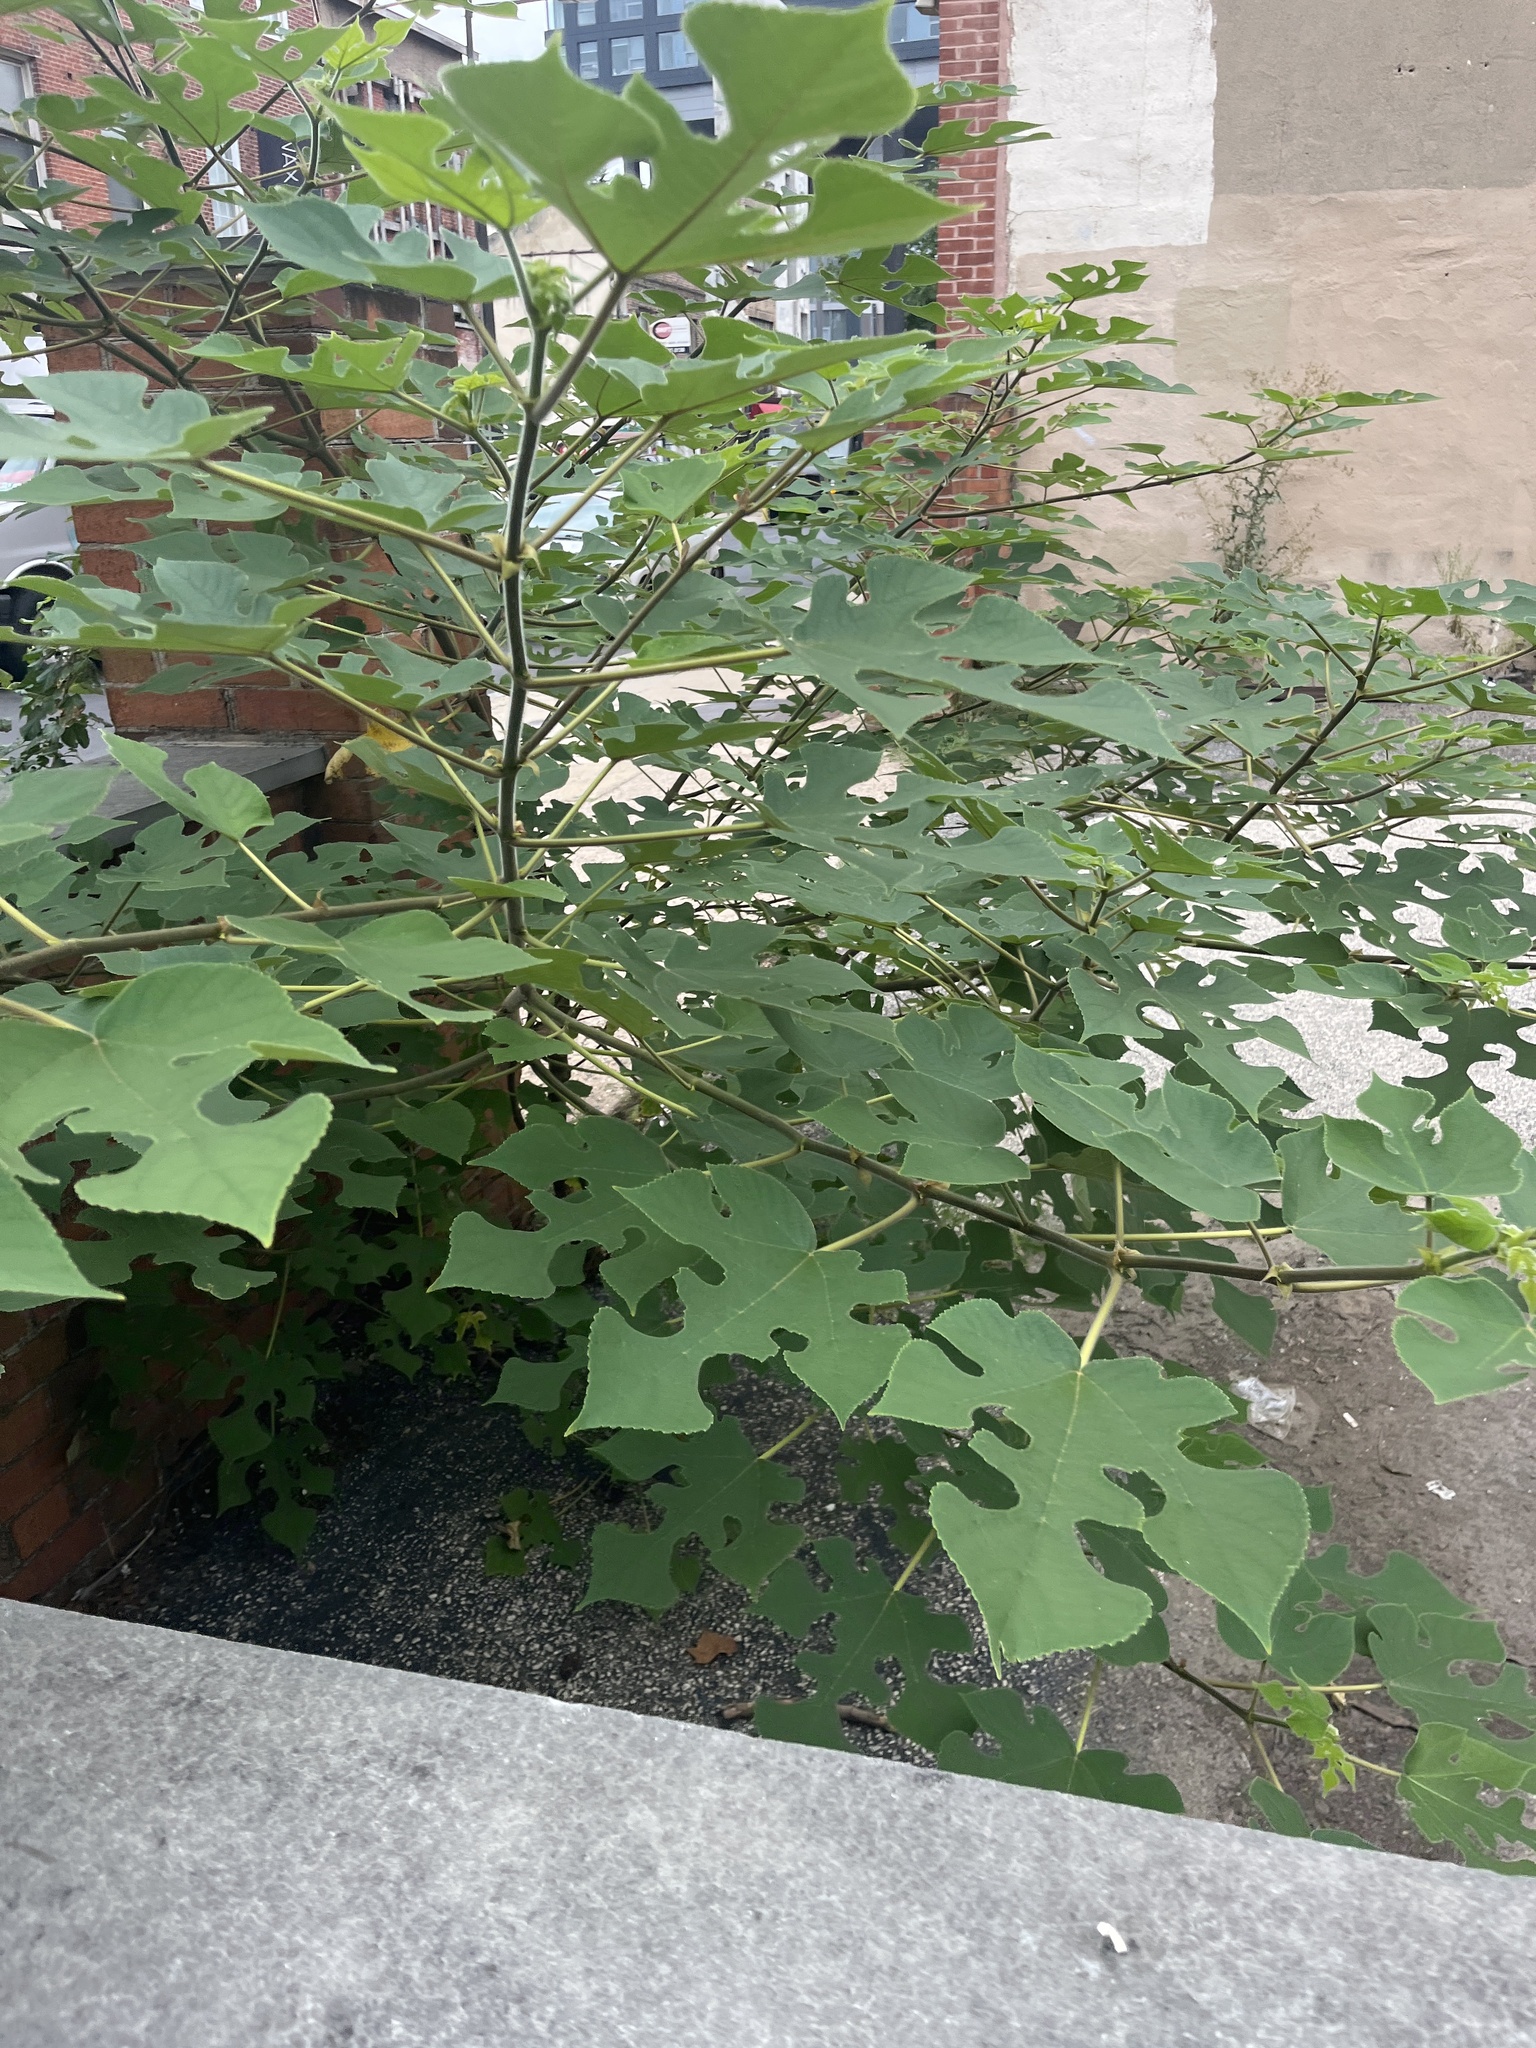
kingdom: Plantae
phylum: Tracheophyta
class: Magnoliopsida
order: Rosales
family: Moraceae
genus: Broussonetia
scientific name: Broussonetia papyrifera
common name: Paper mulberry
